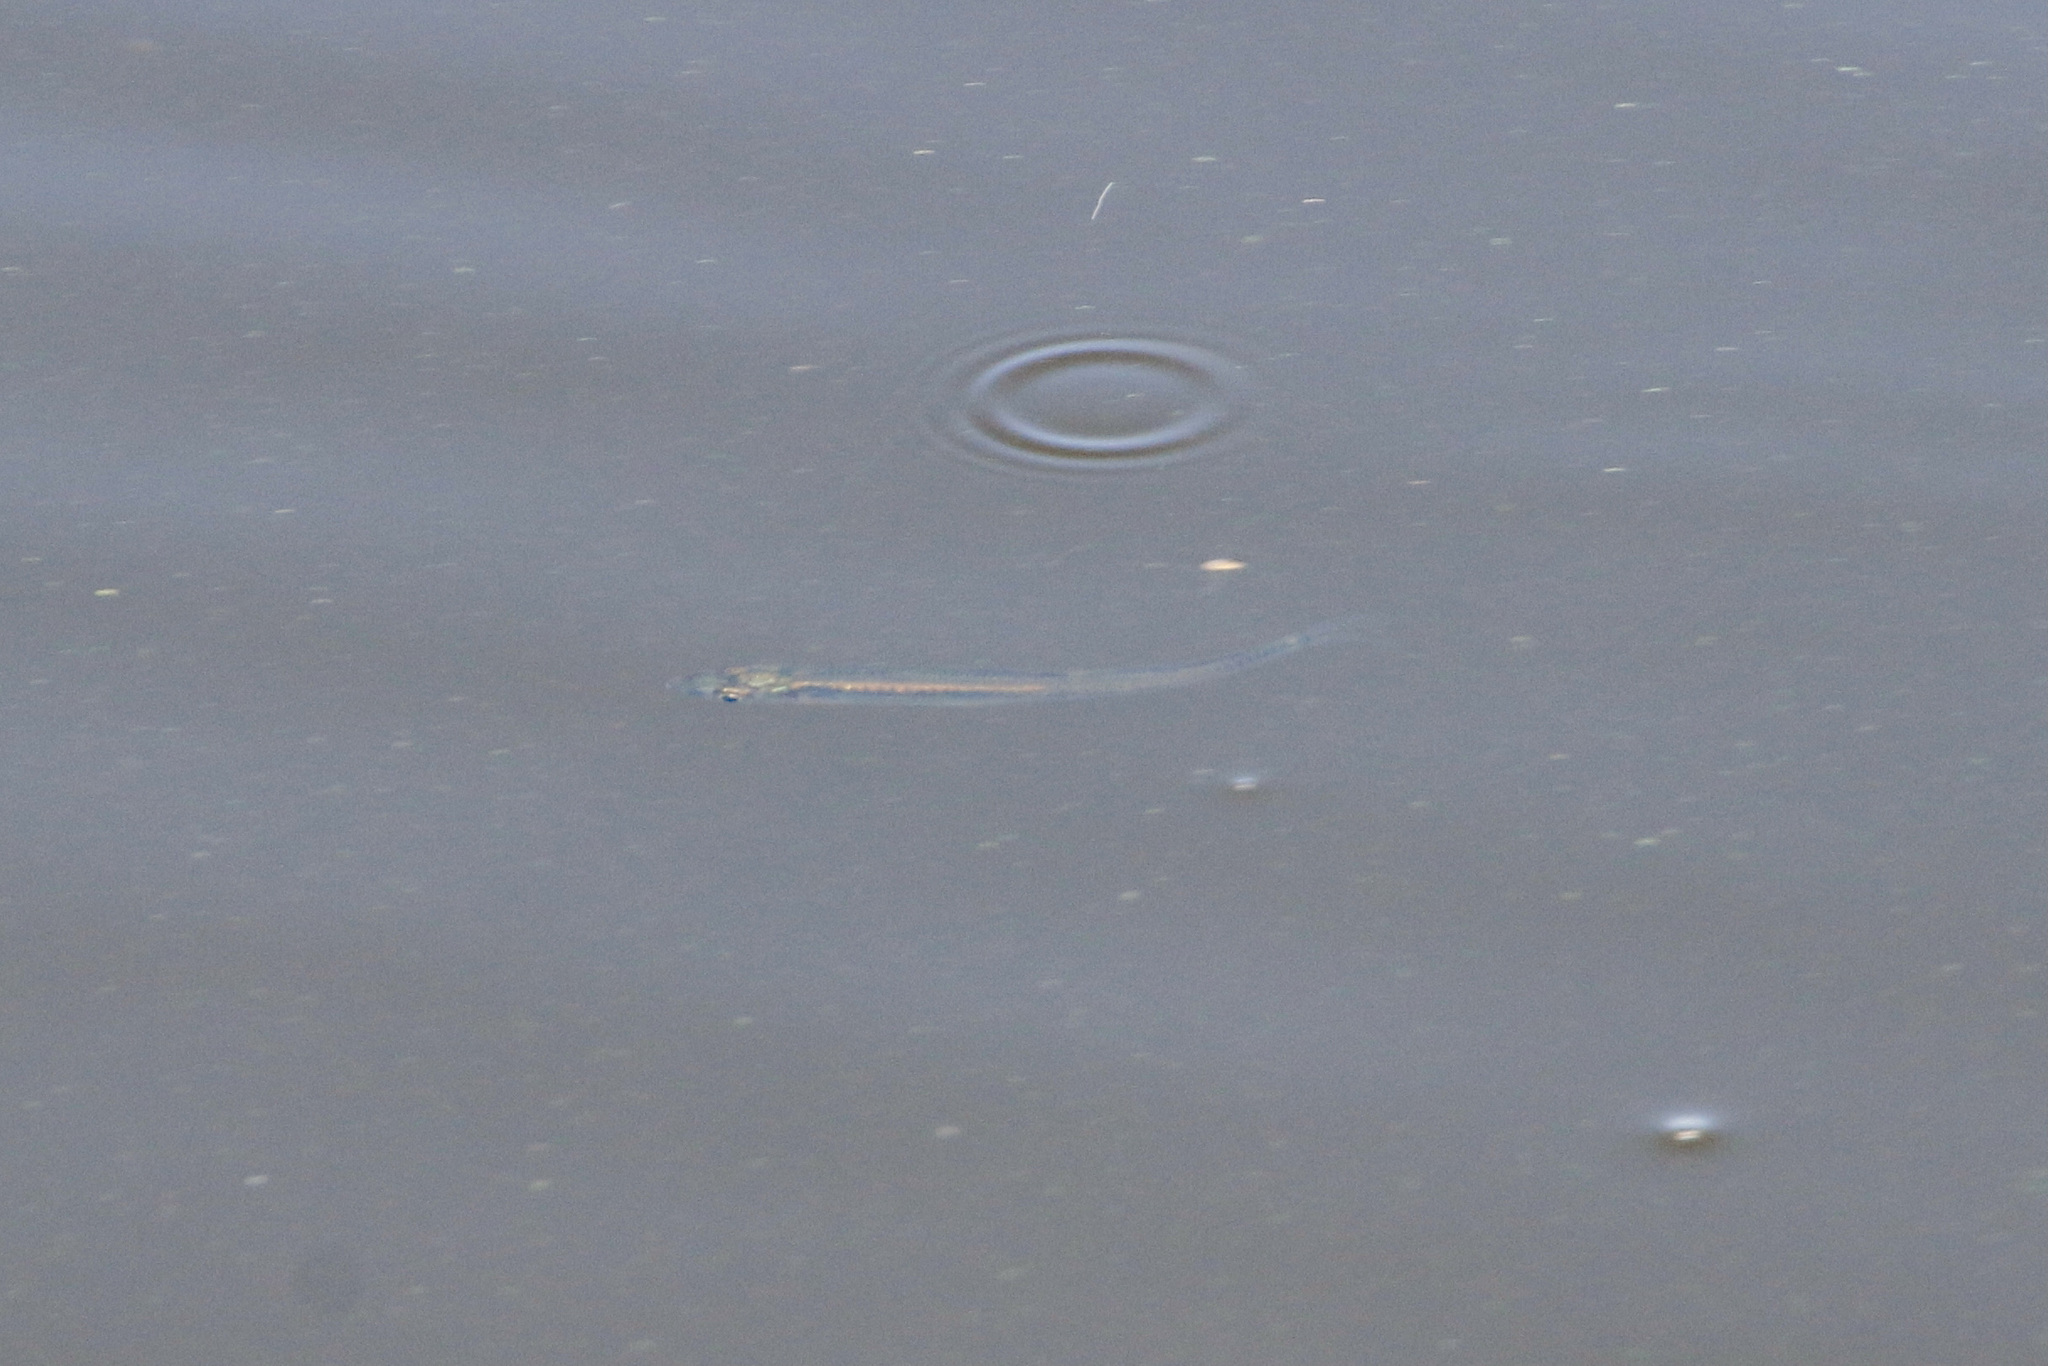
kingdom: Animalia
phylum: Chordata
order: Atheriniformes
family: Atherinopsidae
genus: Labidesthes
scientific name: Labidesthes sicculus
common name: Brook silverside
